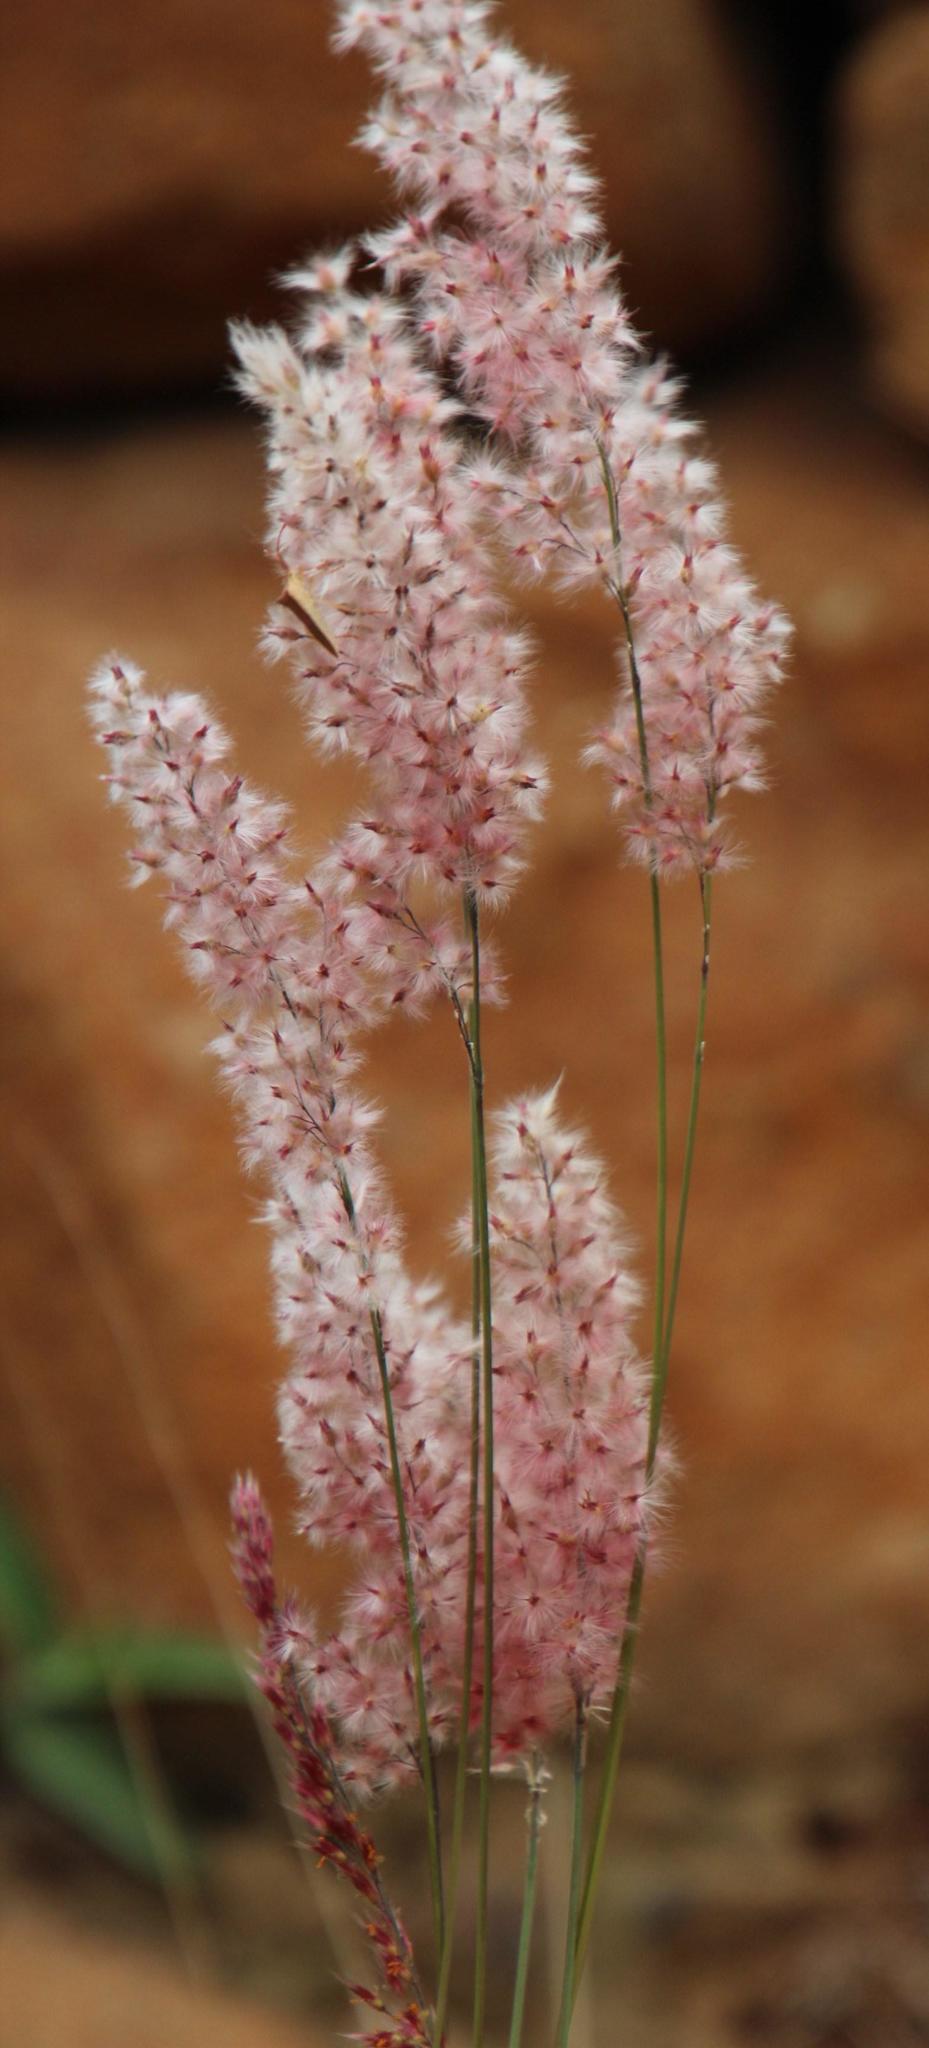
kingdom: Plantae
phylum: Tracheophyta
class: Liliopsida
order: Poales
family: Poaceae
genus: Melinis
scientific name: Melinis nerviglumis
